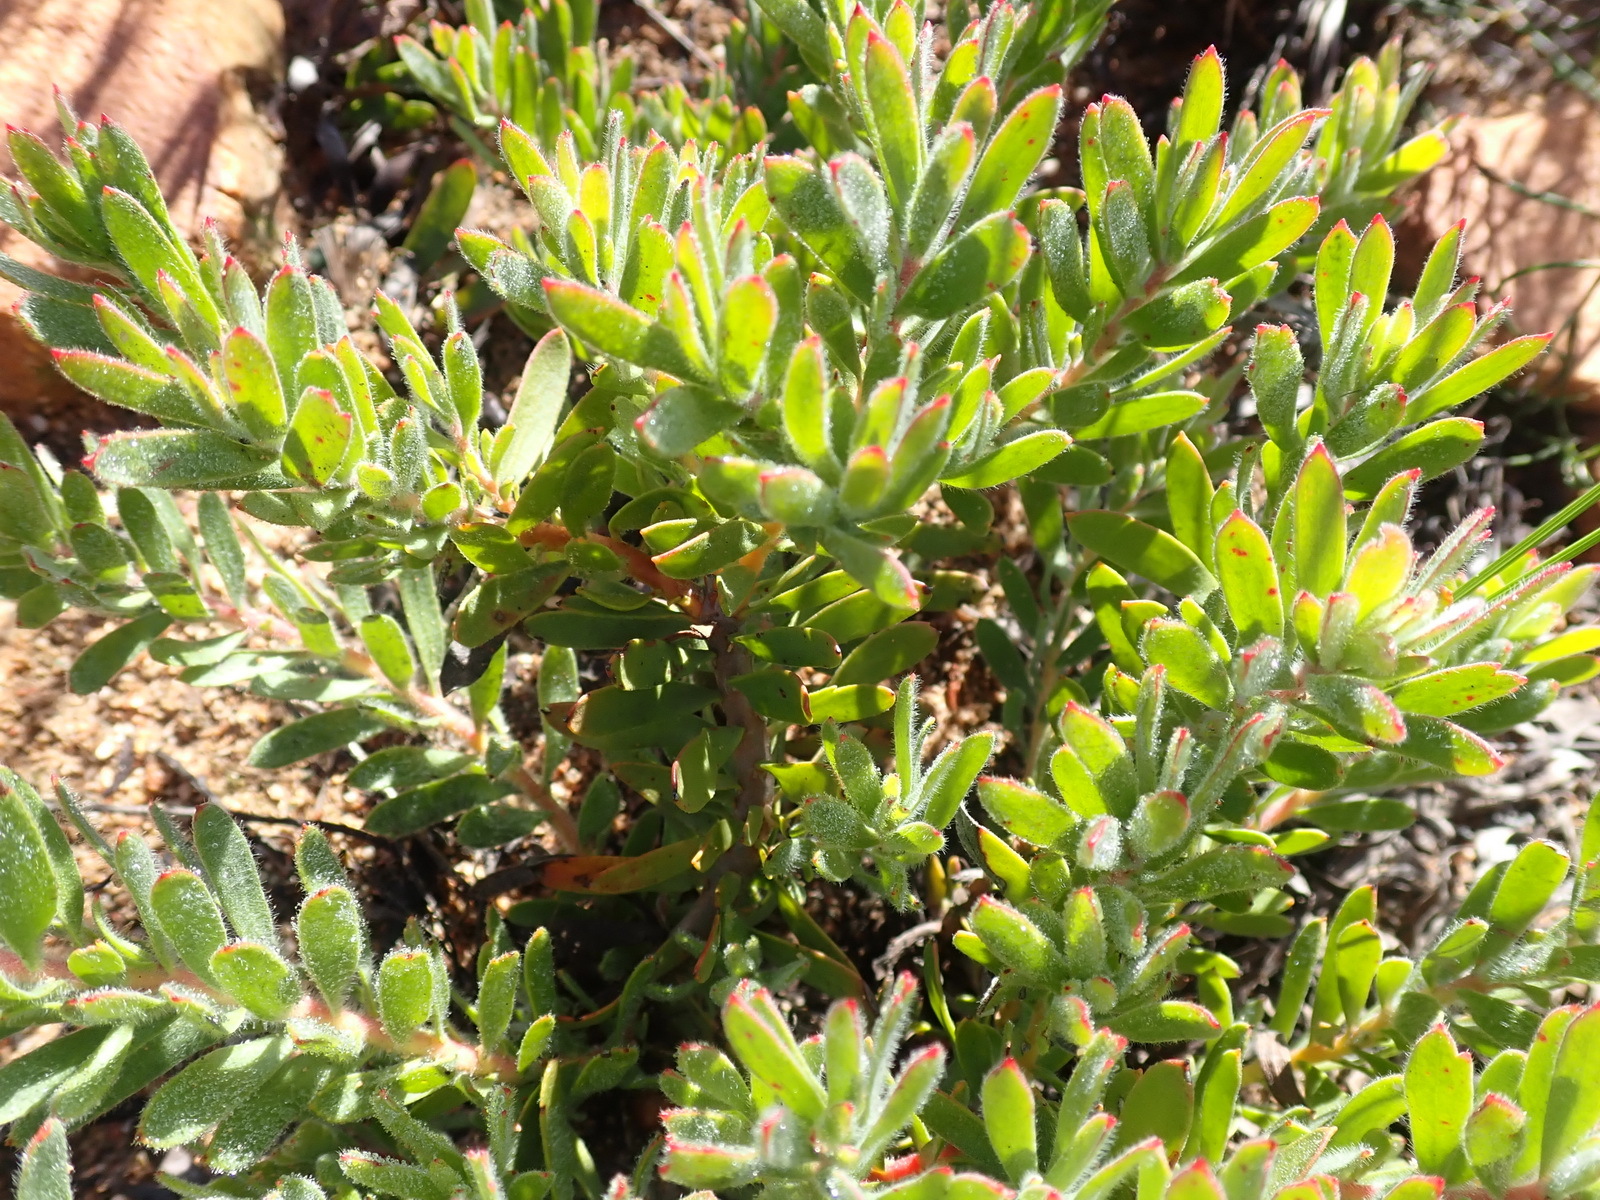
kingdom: Plantae
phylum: Tracheophyta
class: Magnoliopsida
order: Proteales
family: Proteaceae
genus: Leucospermum
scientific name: Leucospermum royenifolium
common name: Eastern pincushion
